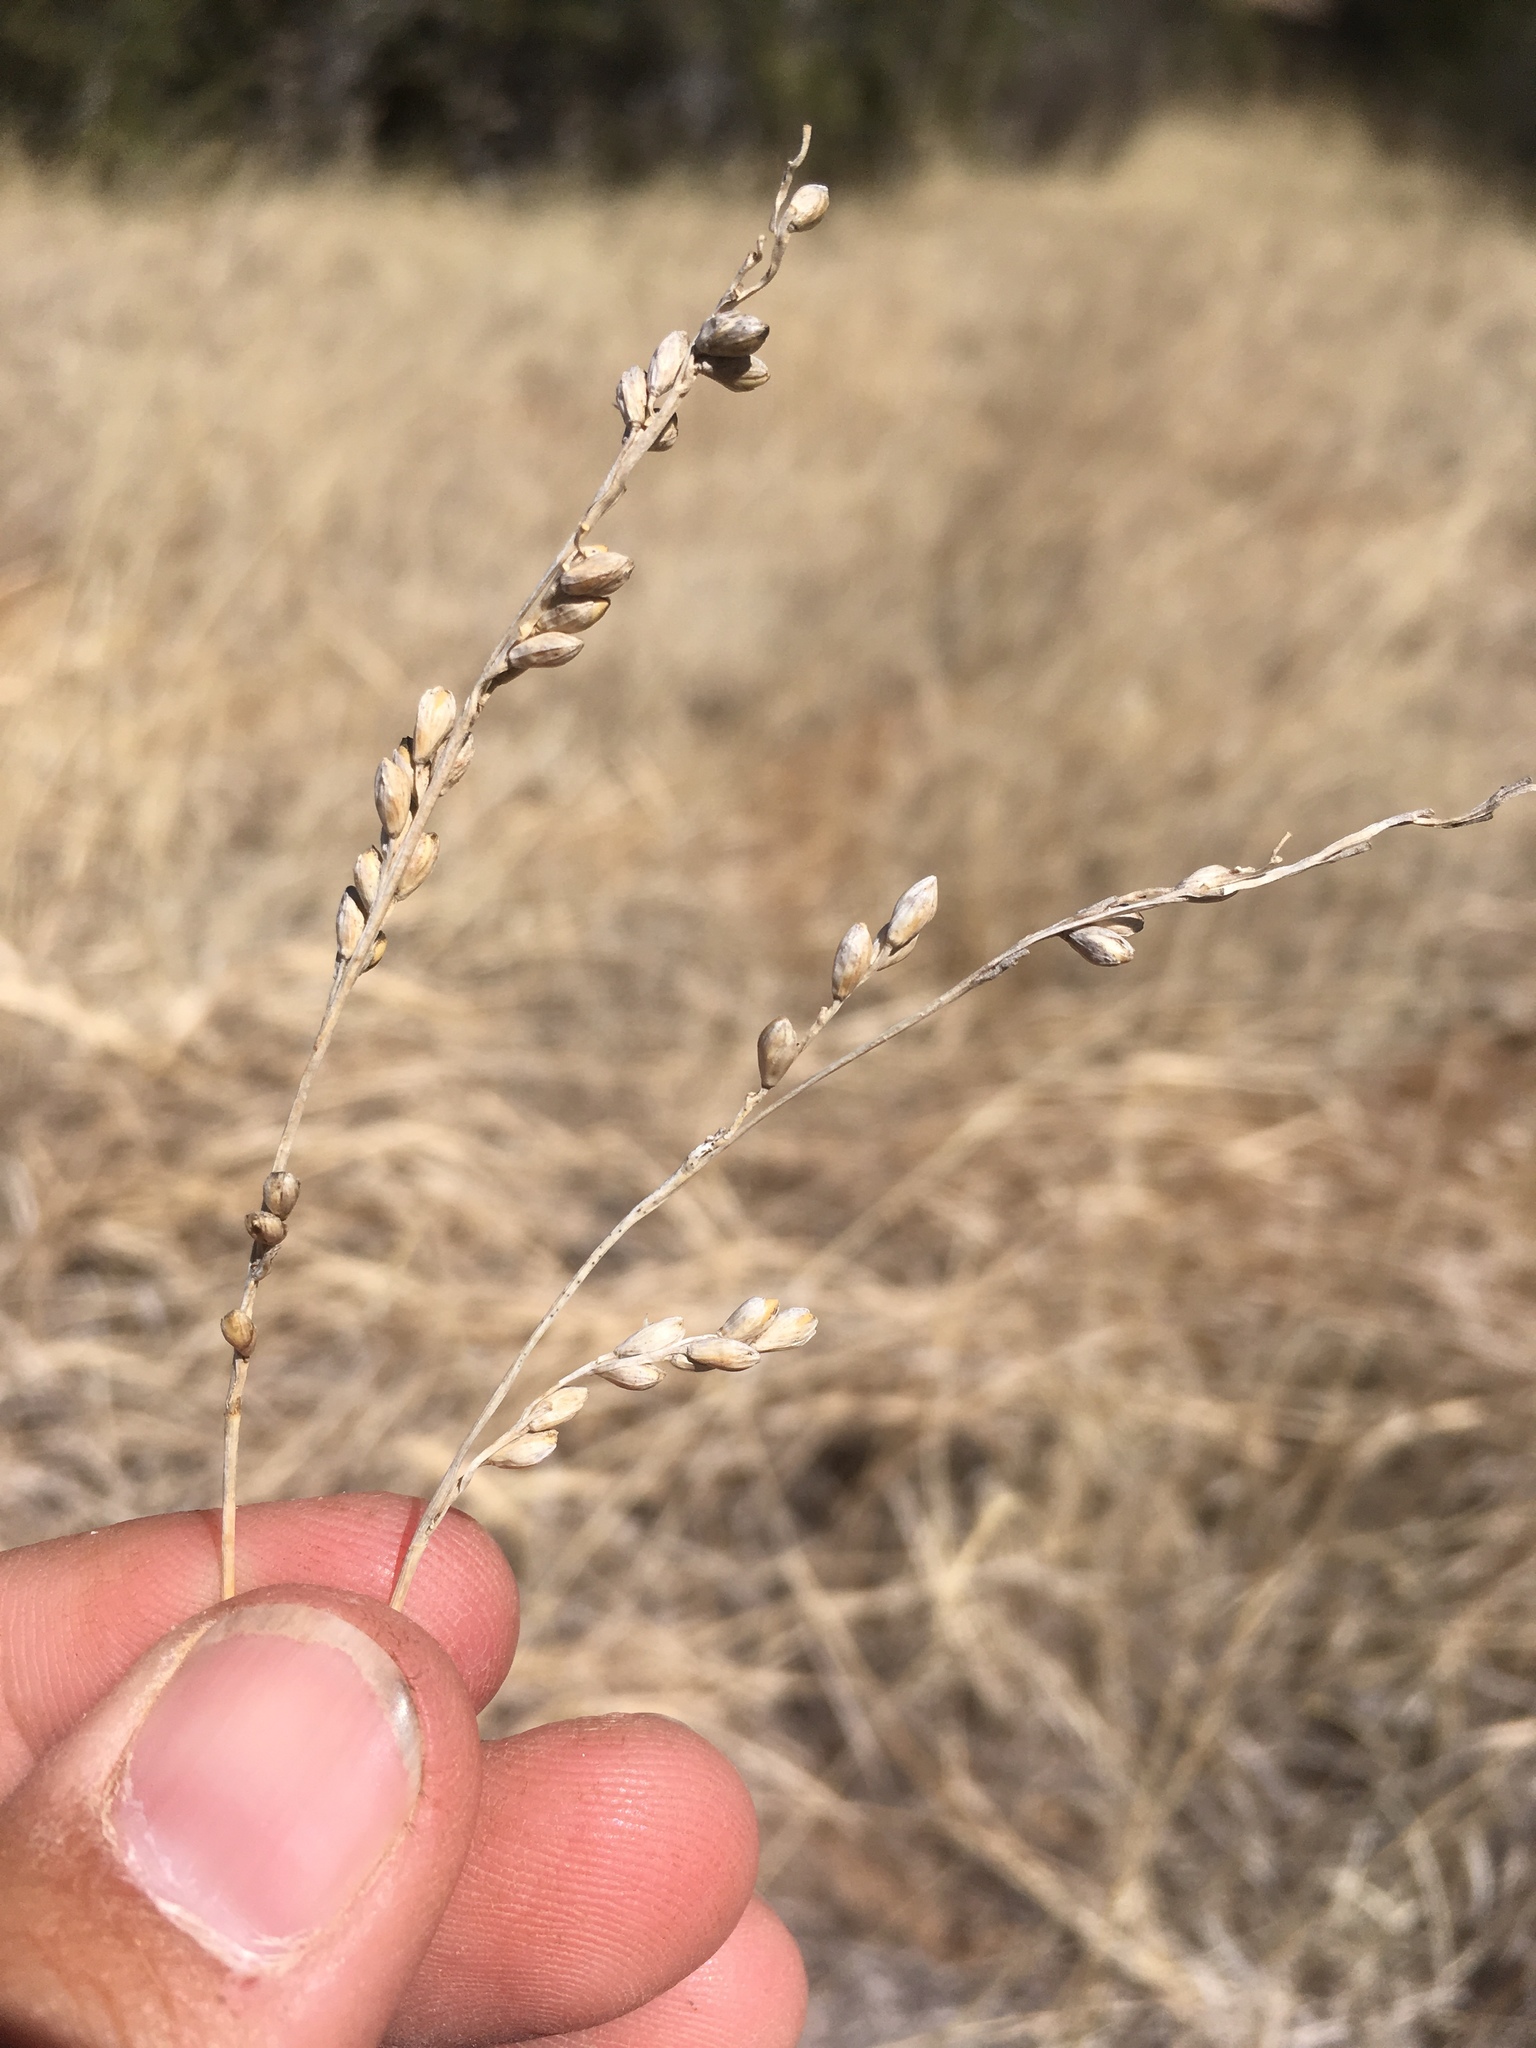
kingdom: Plantae
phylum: Tracheophyta
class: Liliopsida
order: Poales
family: Poaceae
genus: Hopia
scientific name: Hopia obtusa
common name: Vine-mesquite
